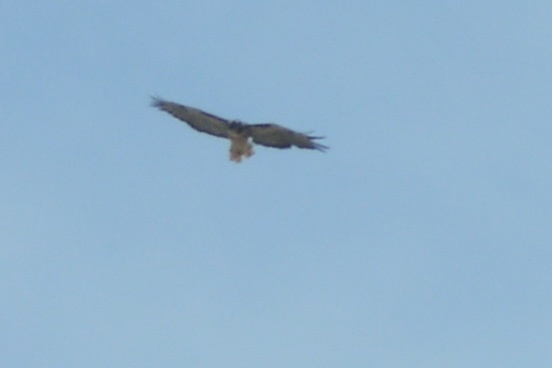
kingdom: Animalia
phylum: Chordata
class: Aves
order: Accipitriformes
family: Accipitridae
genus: Buteo
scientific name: Buteo jamaicensis
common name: Red-tailed hawk
